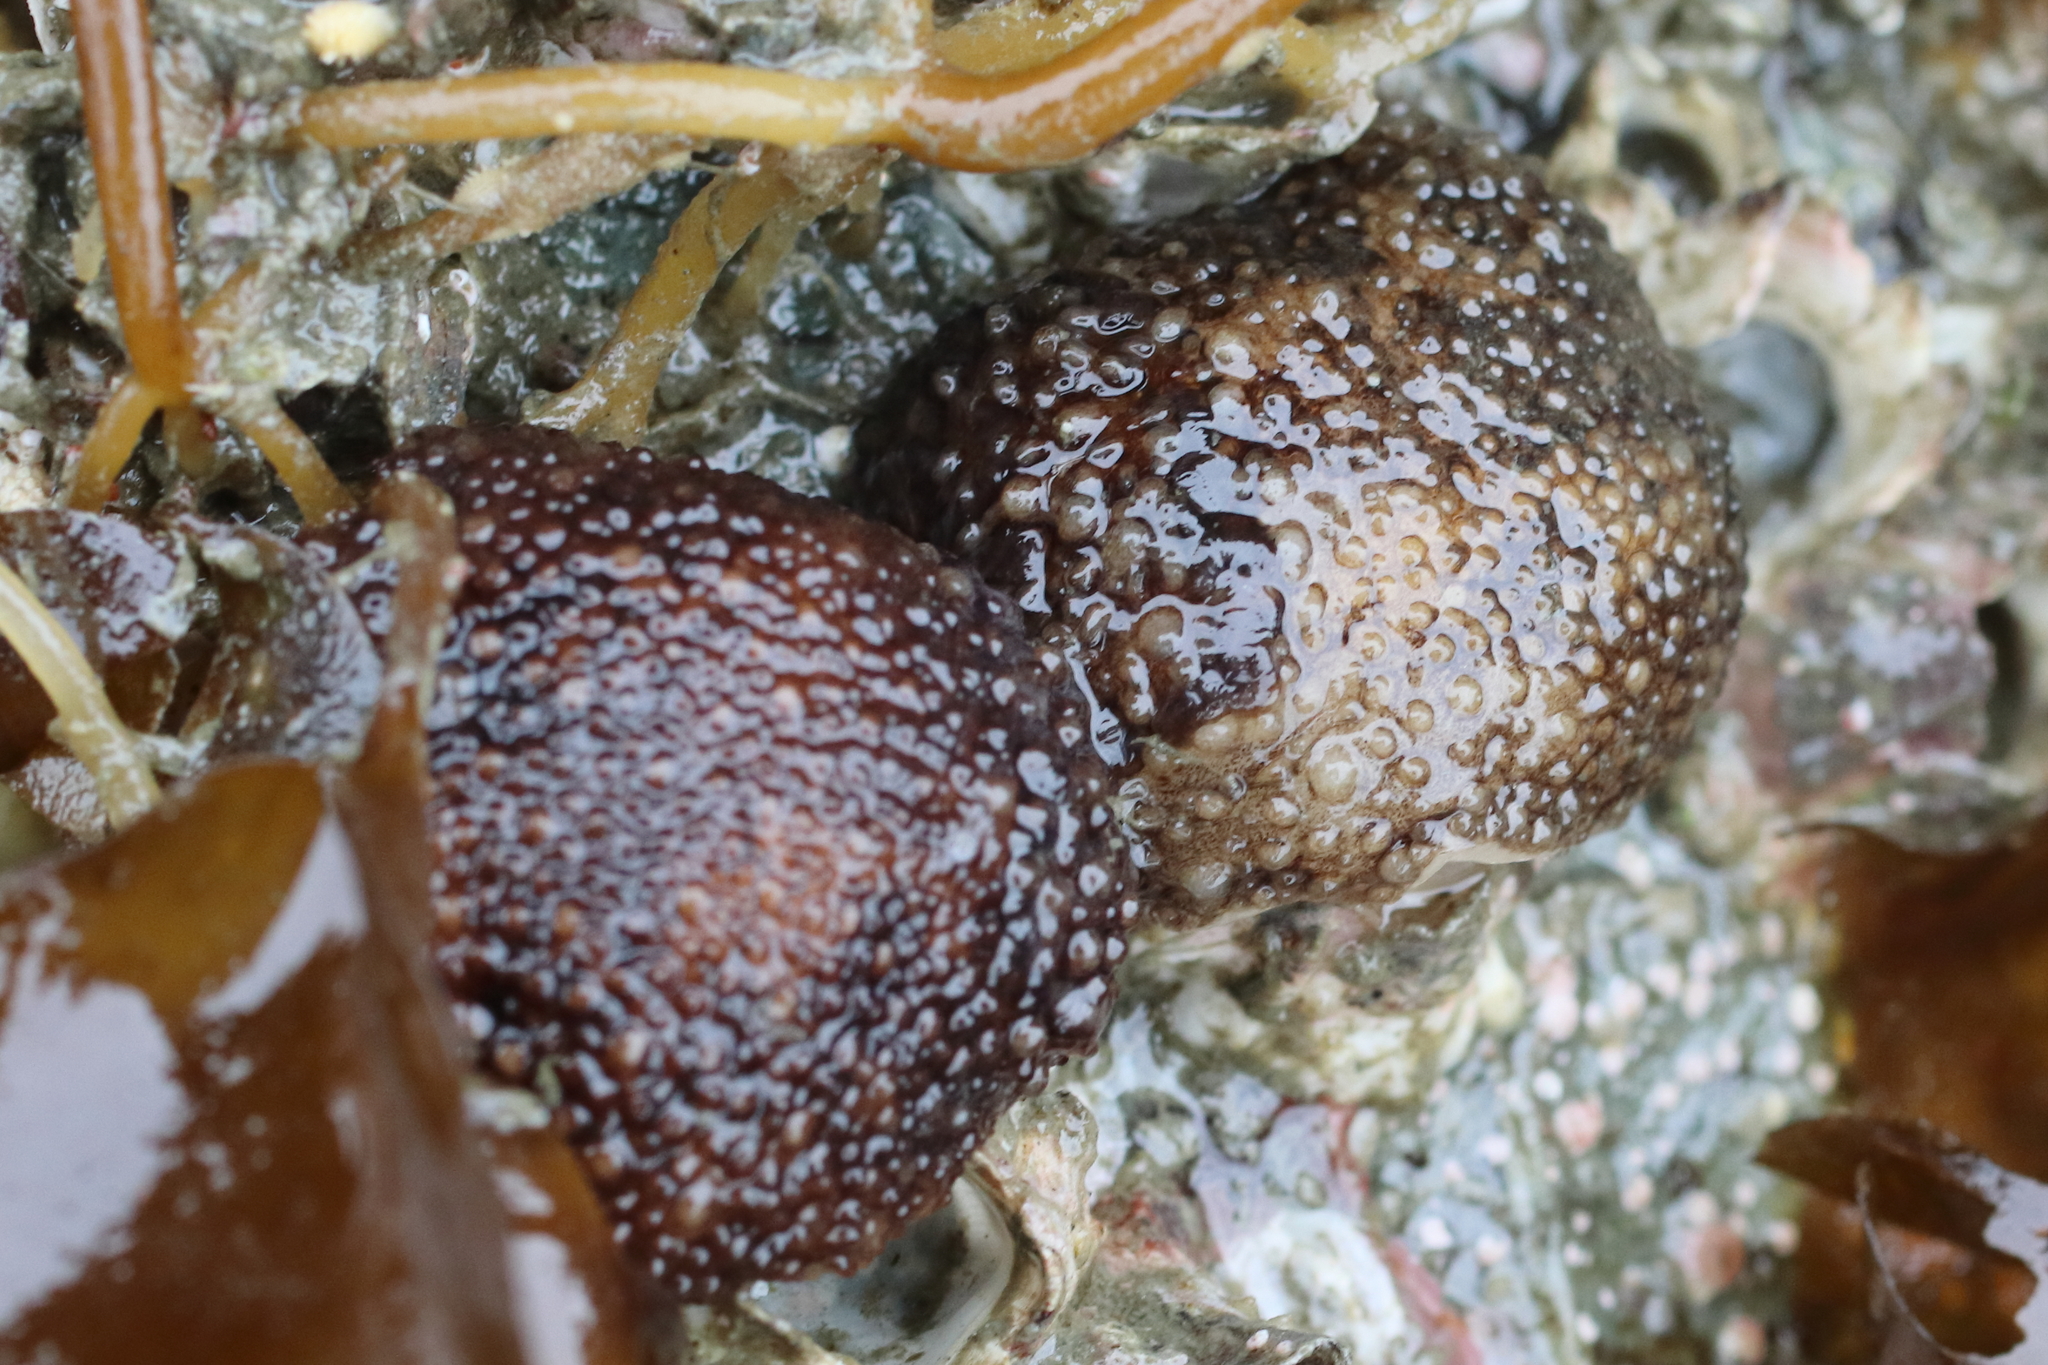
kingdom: Animalia
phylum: Mollusca
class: Gastropoda
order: Nudibranchia
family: Onchidorididae
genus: Onchidoris
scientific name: Onchidoris bilamellata
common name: Barnacle-eating onchidoris
